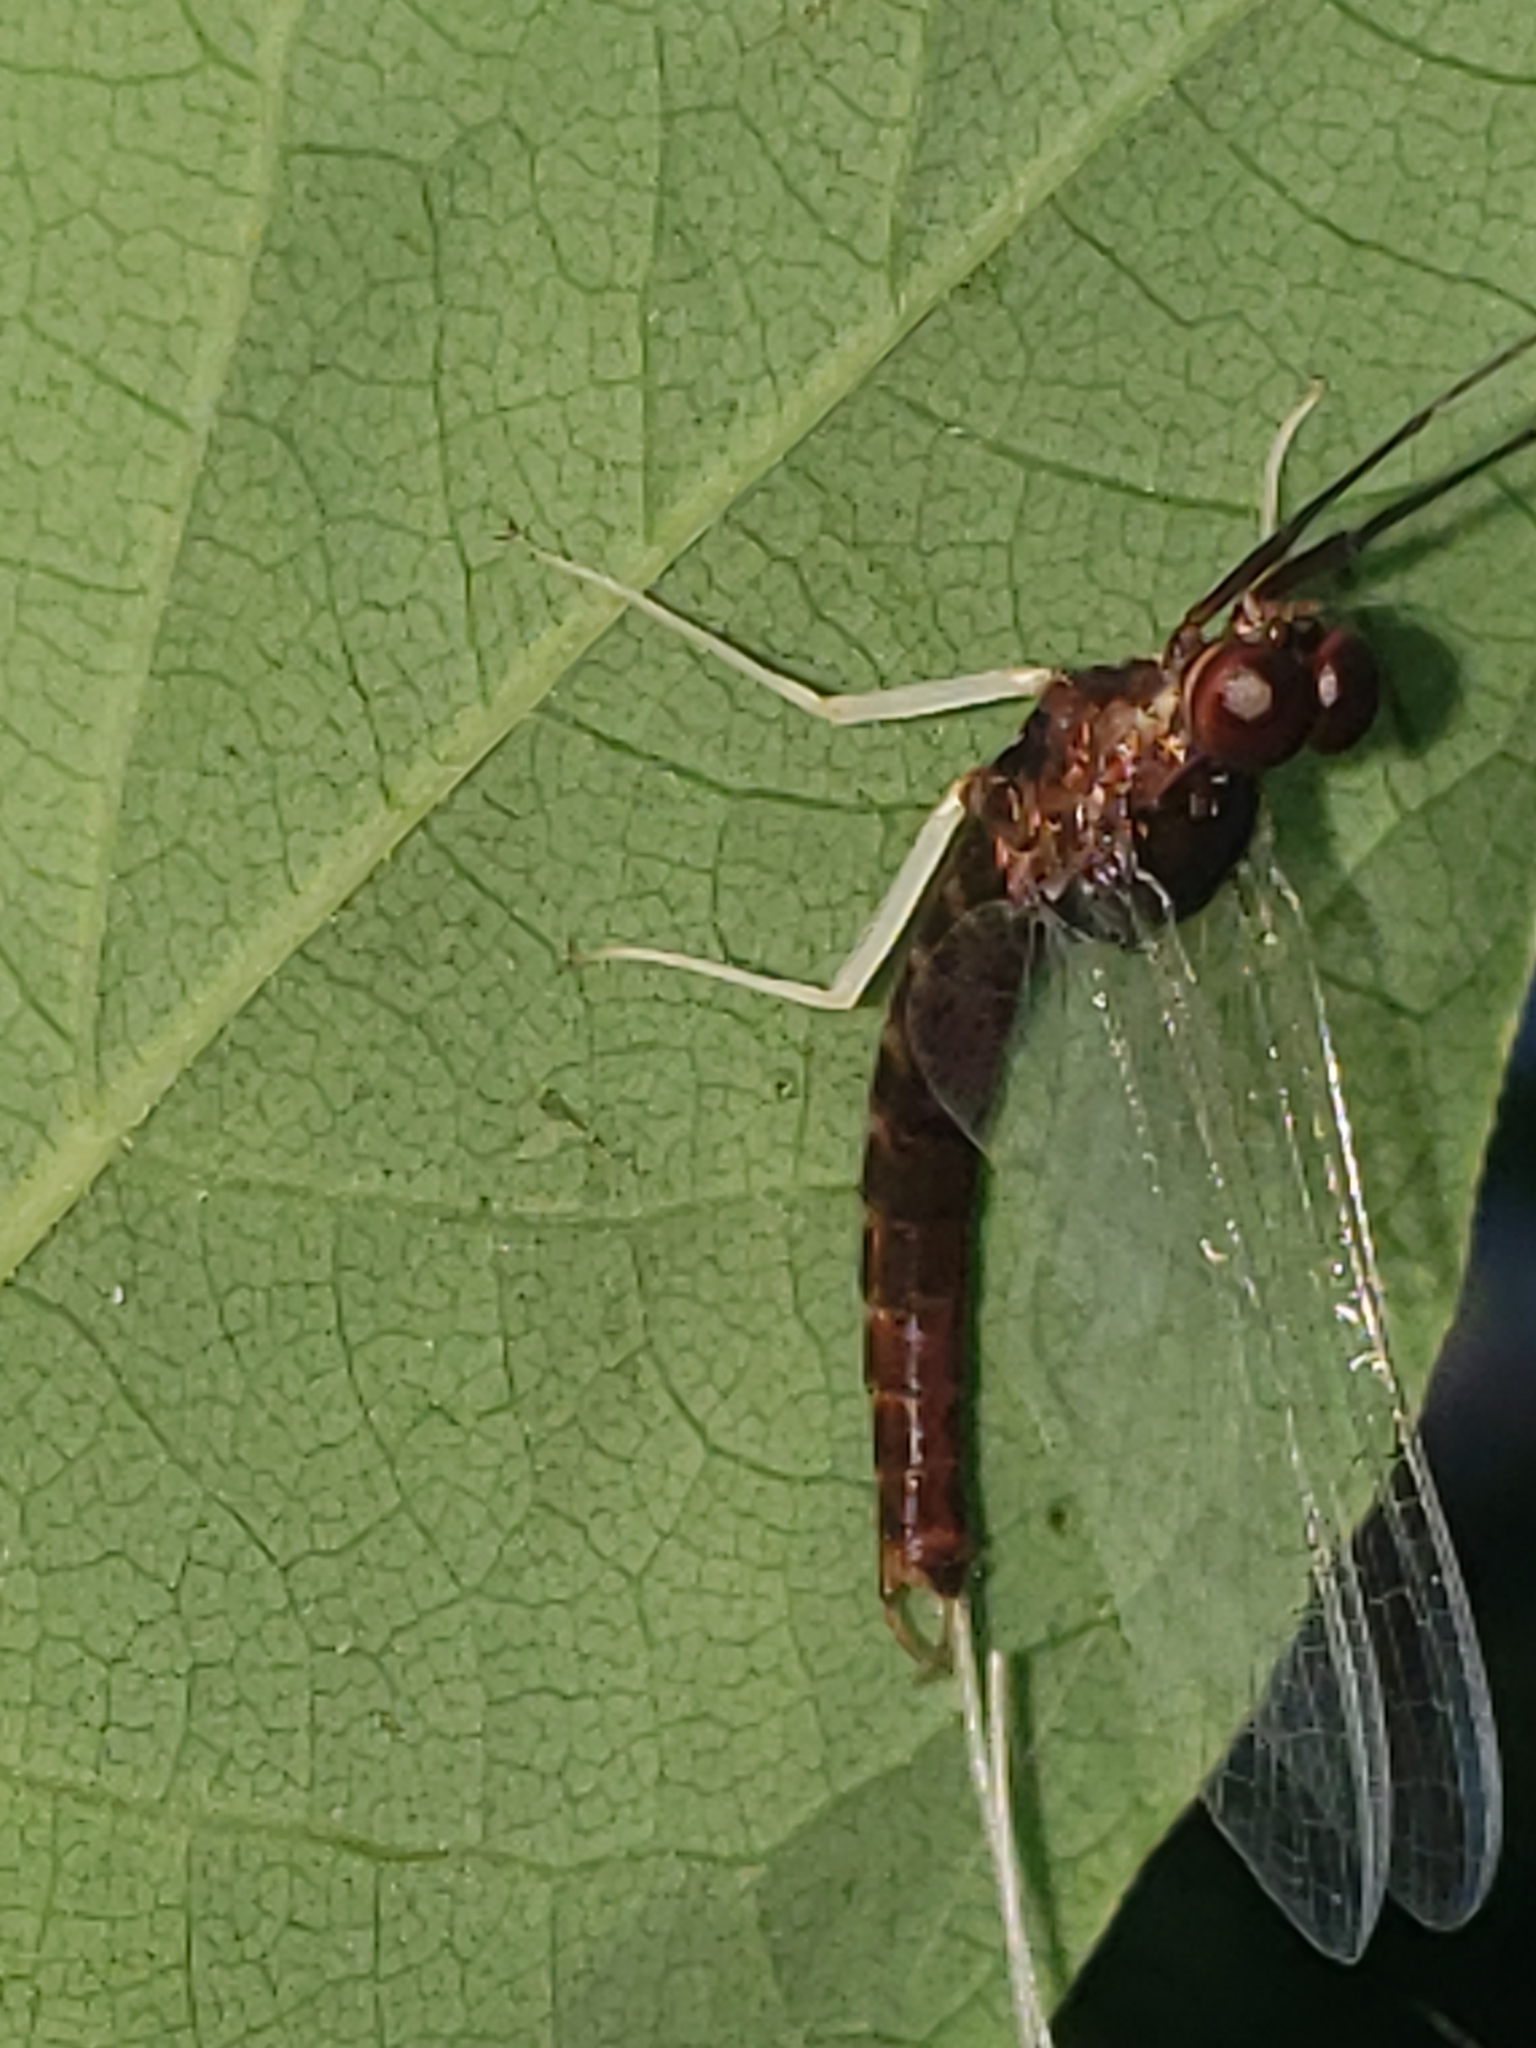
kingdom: Animalia
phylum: Arthropoda
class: Insecta
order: Ephemeroptera
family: Isonychiidae
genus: Isonychia
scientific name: Isonychia bicolor
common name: Mahogany dun
